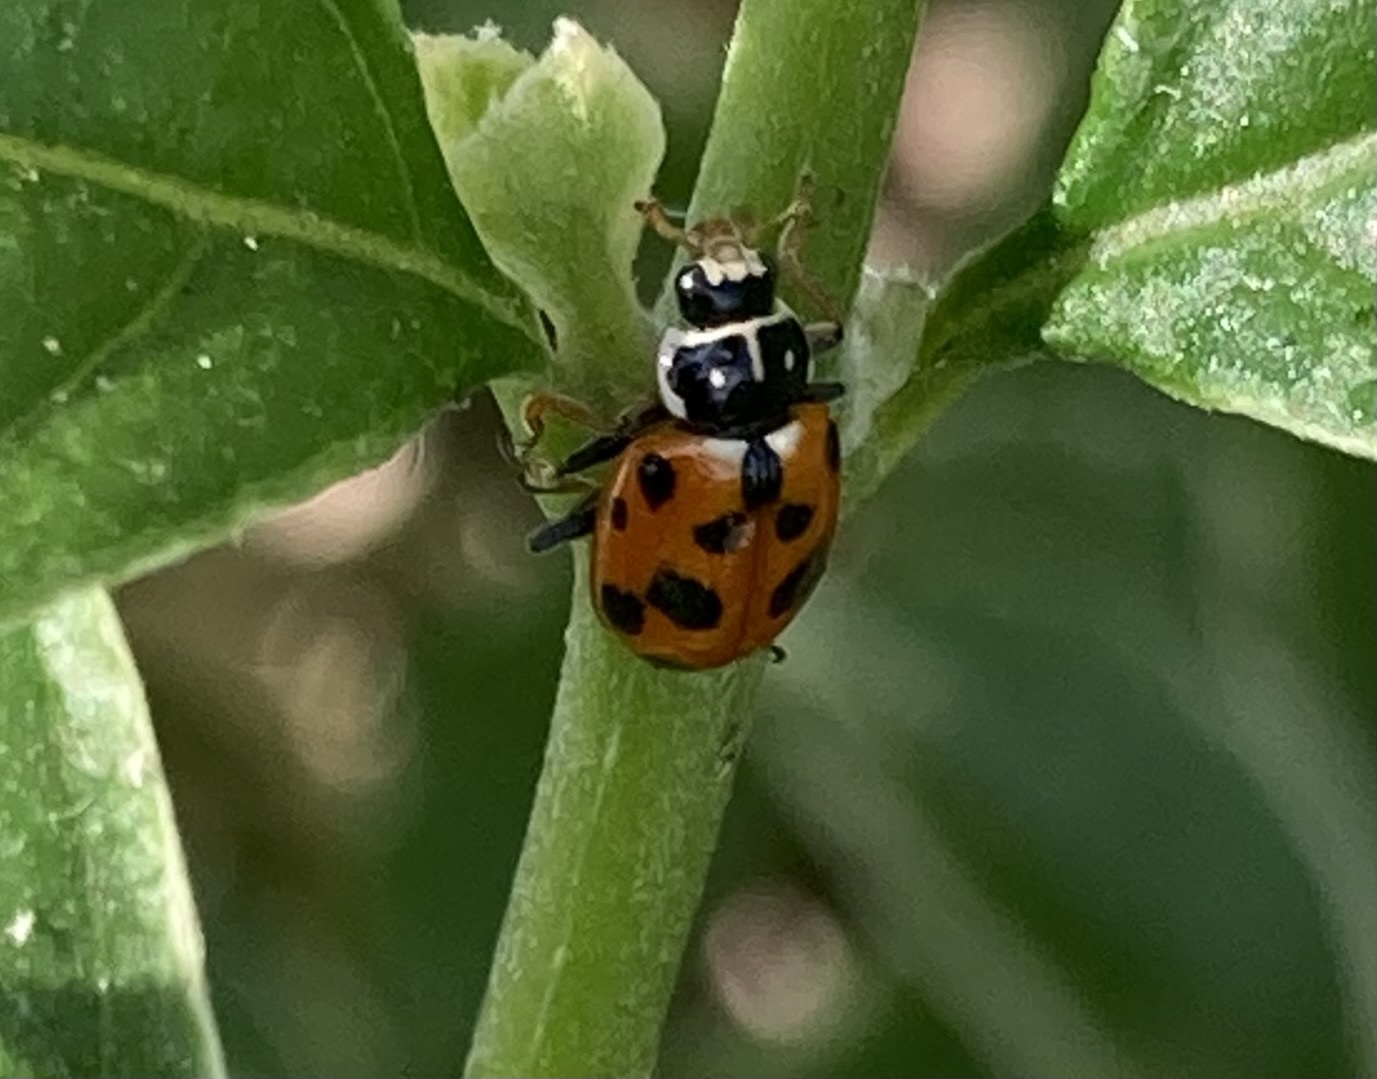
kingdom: Animalia
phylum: Arthropoda
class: Insecta
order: Coleoptera
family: Coccinellidae
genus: Hippodamia
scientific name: Hippodamia variegata
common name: Ladybird beetle
